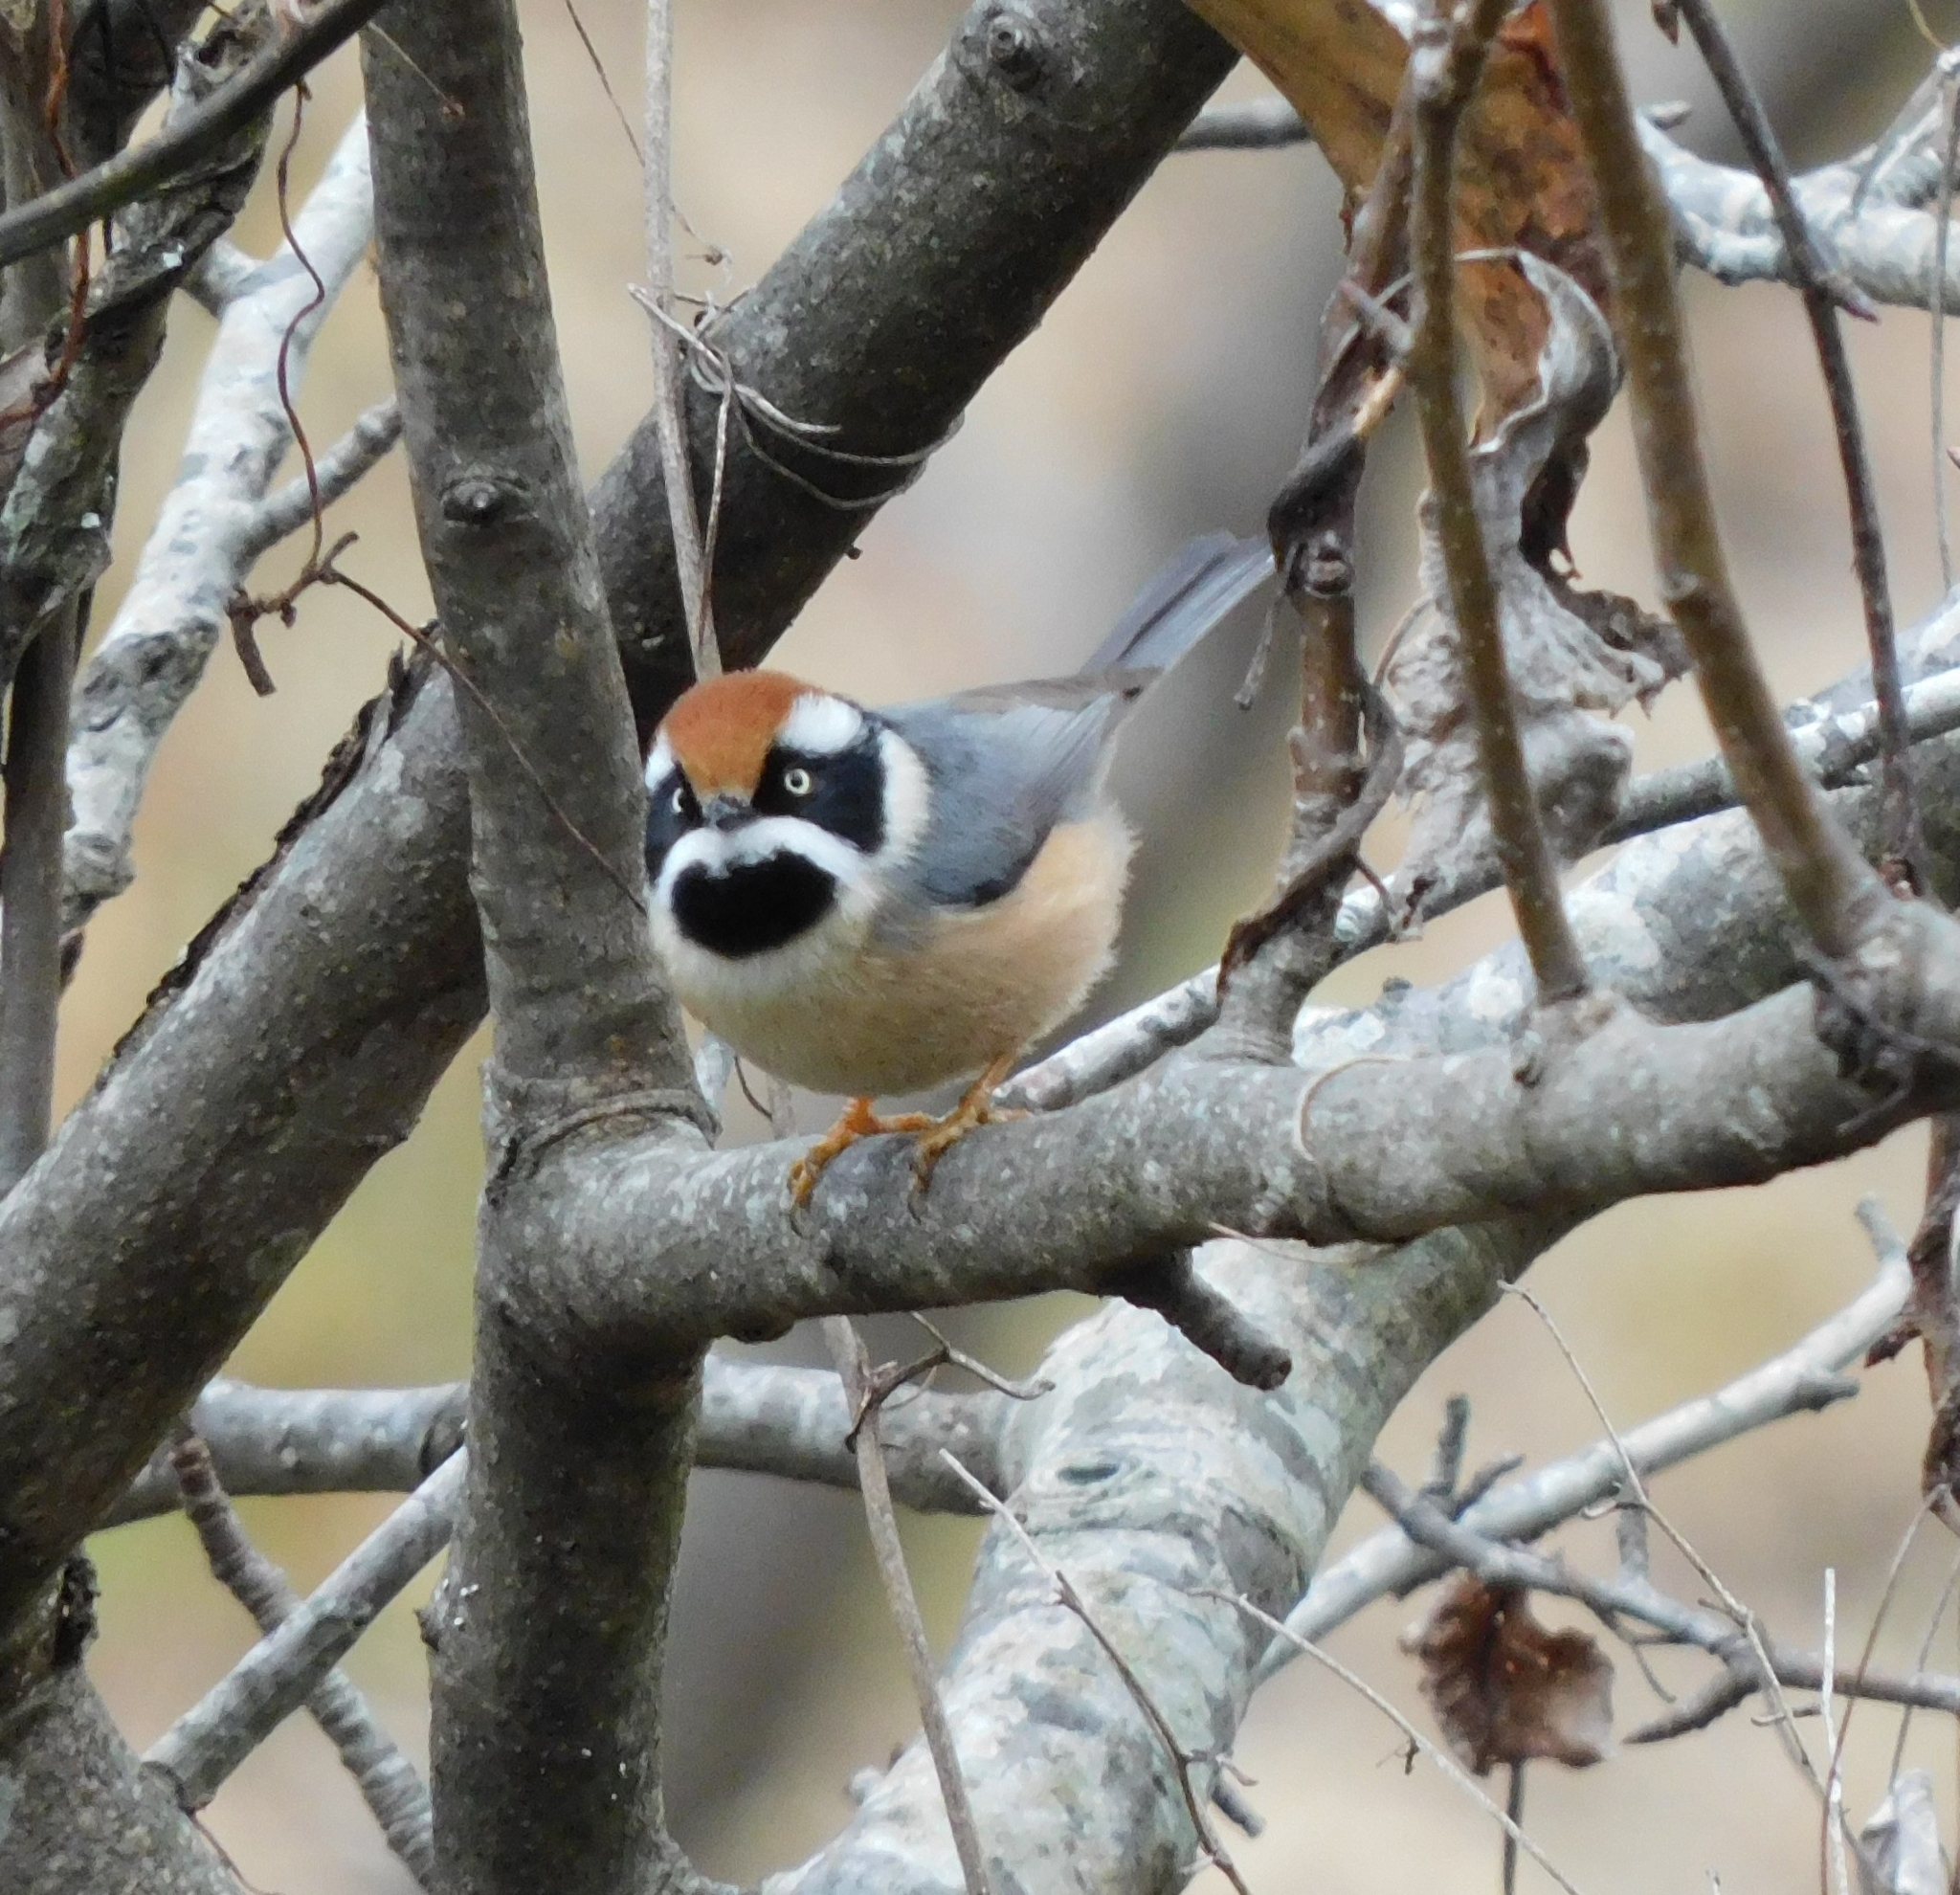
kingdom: Animalia
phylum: Chordata
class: Aves
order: Passeriformes
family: Aegithalidae
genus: Aegithalos
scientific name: Aegithalos concinnus
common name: Black-throated bushtit
